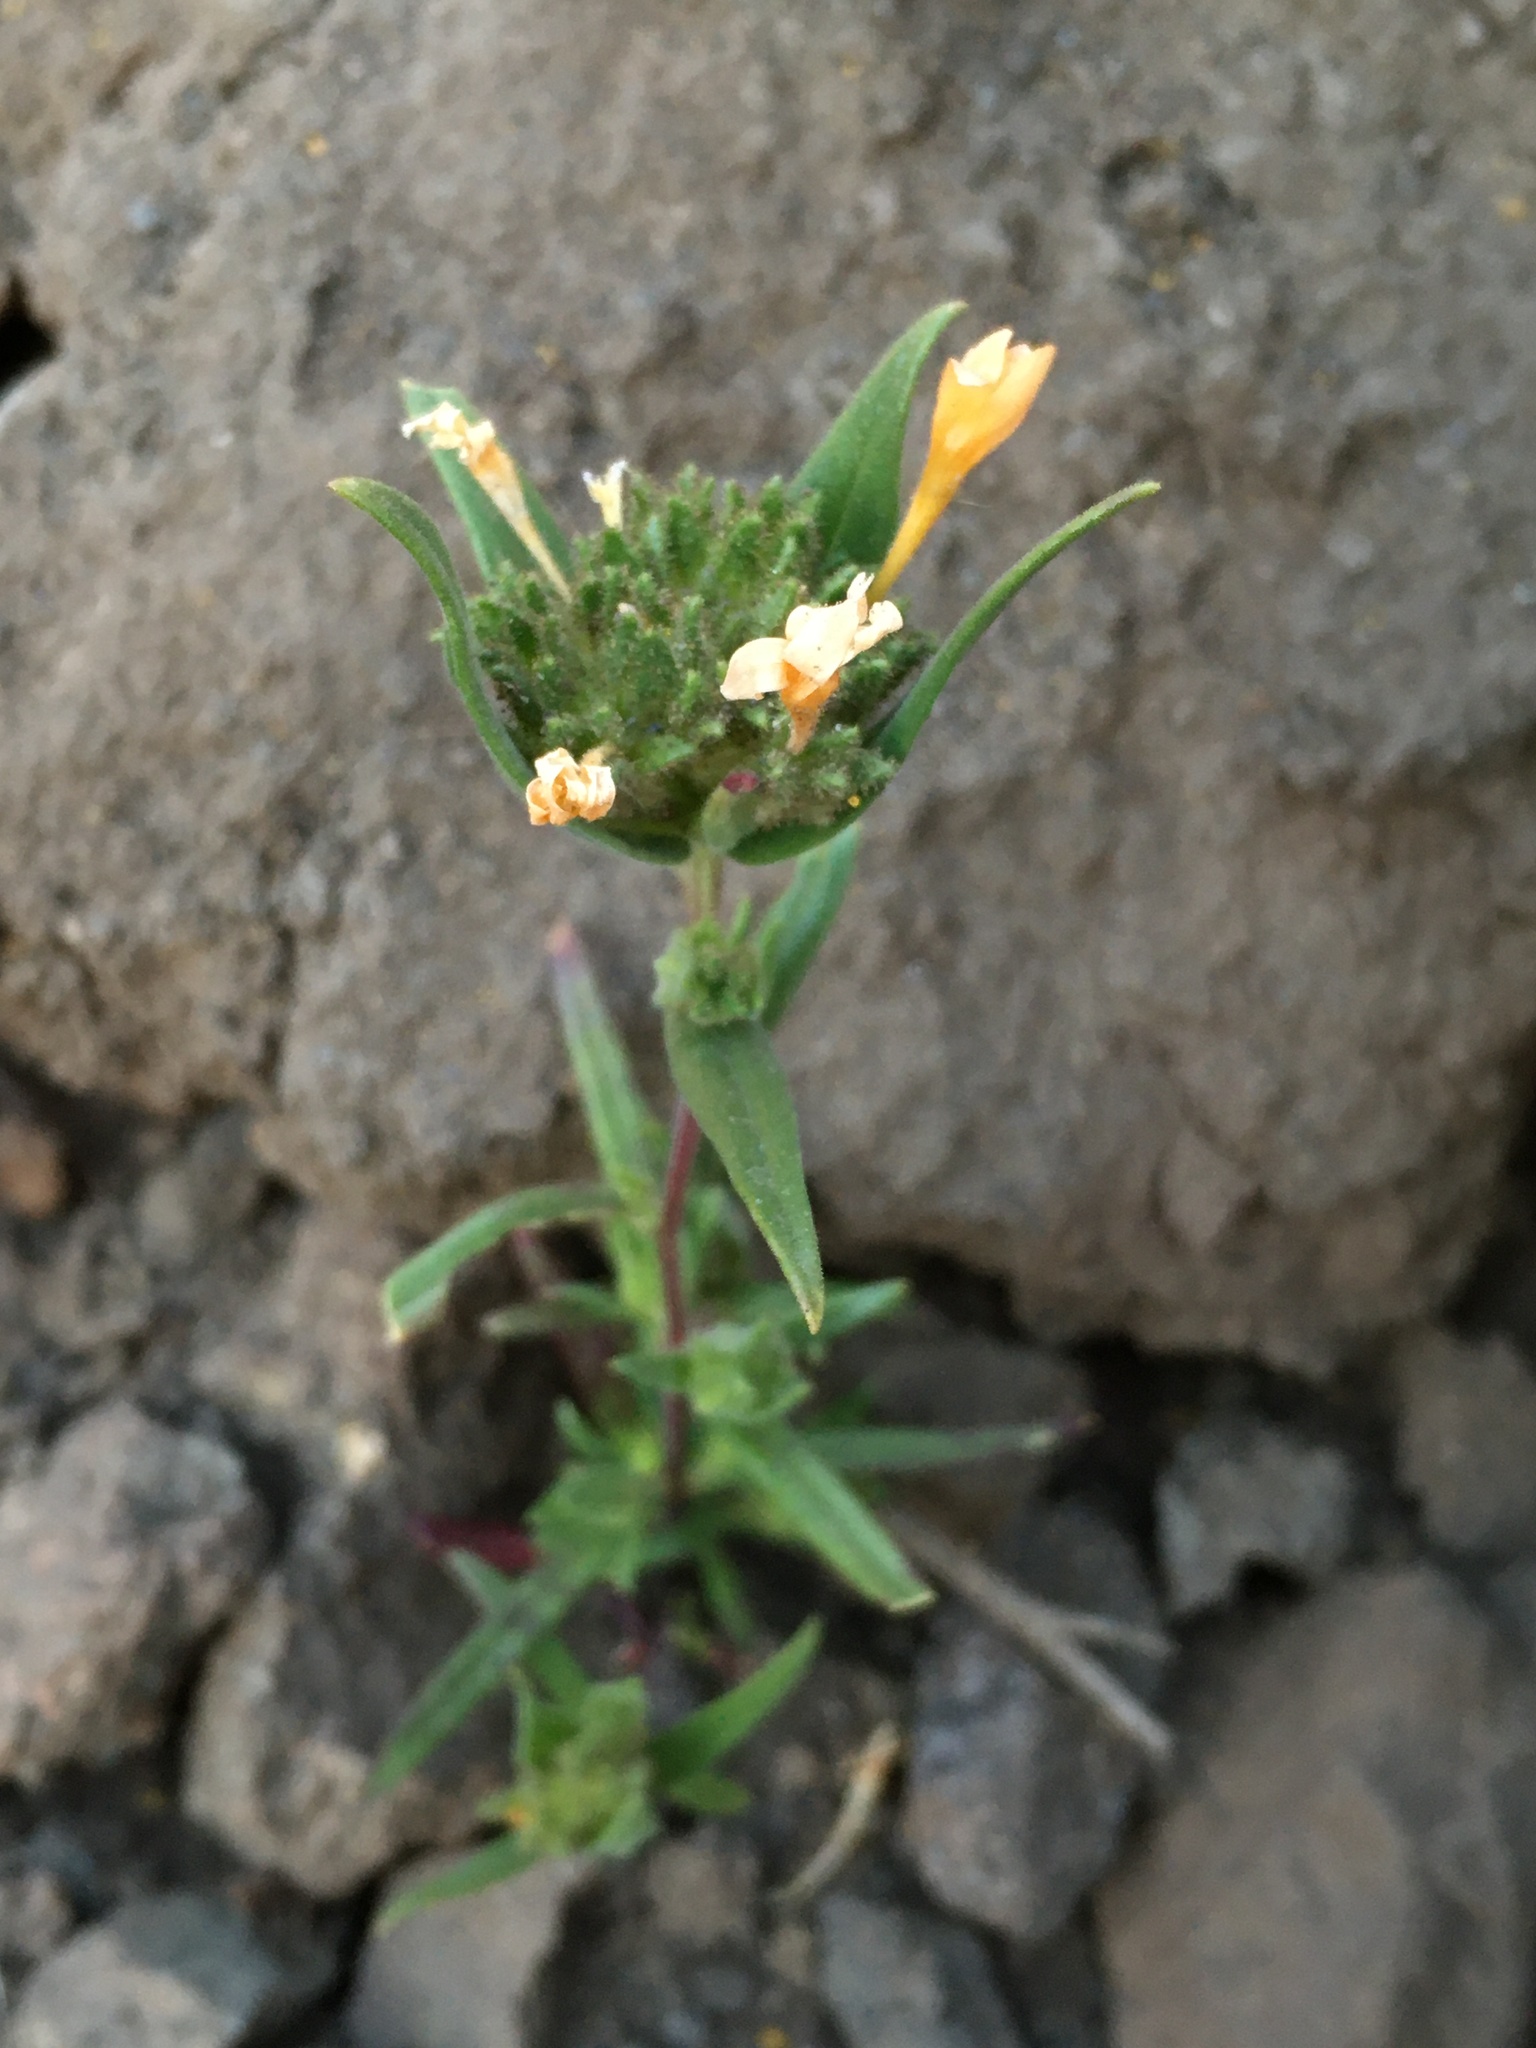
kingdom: Plantae
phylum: Tracheophyta
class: Magnoliopsida
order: Ericales
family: Polemoniaceae
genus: Collomia
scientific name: Collomia biflora
